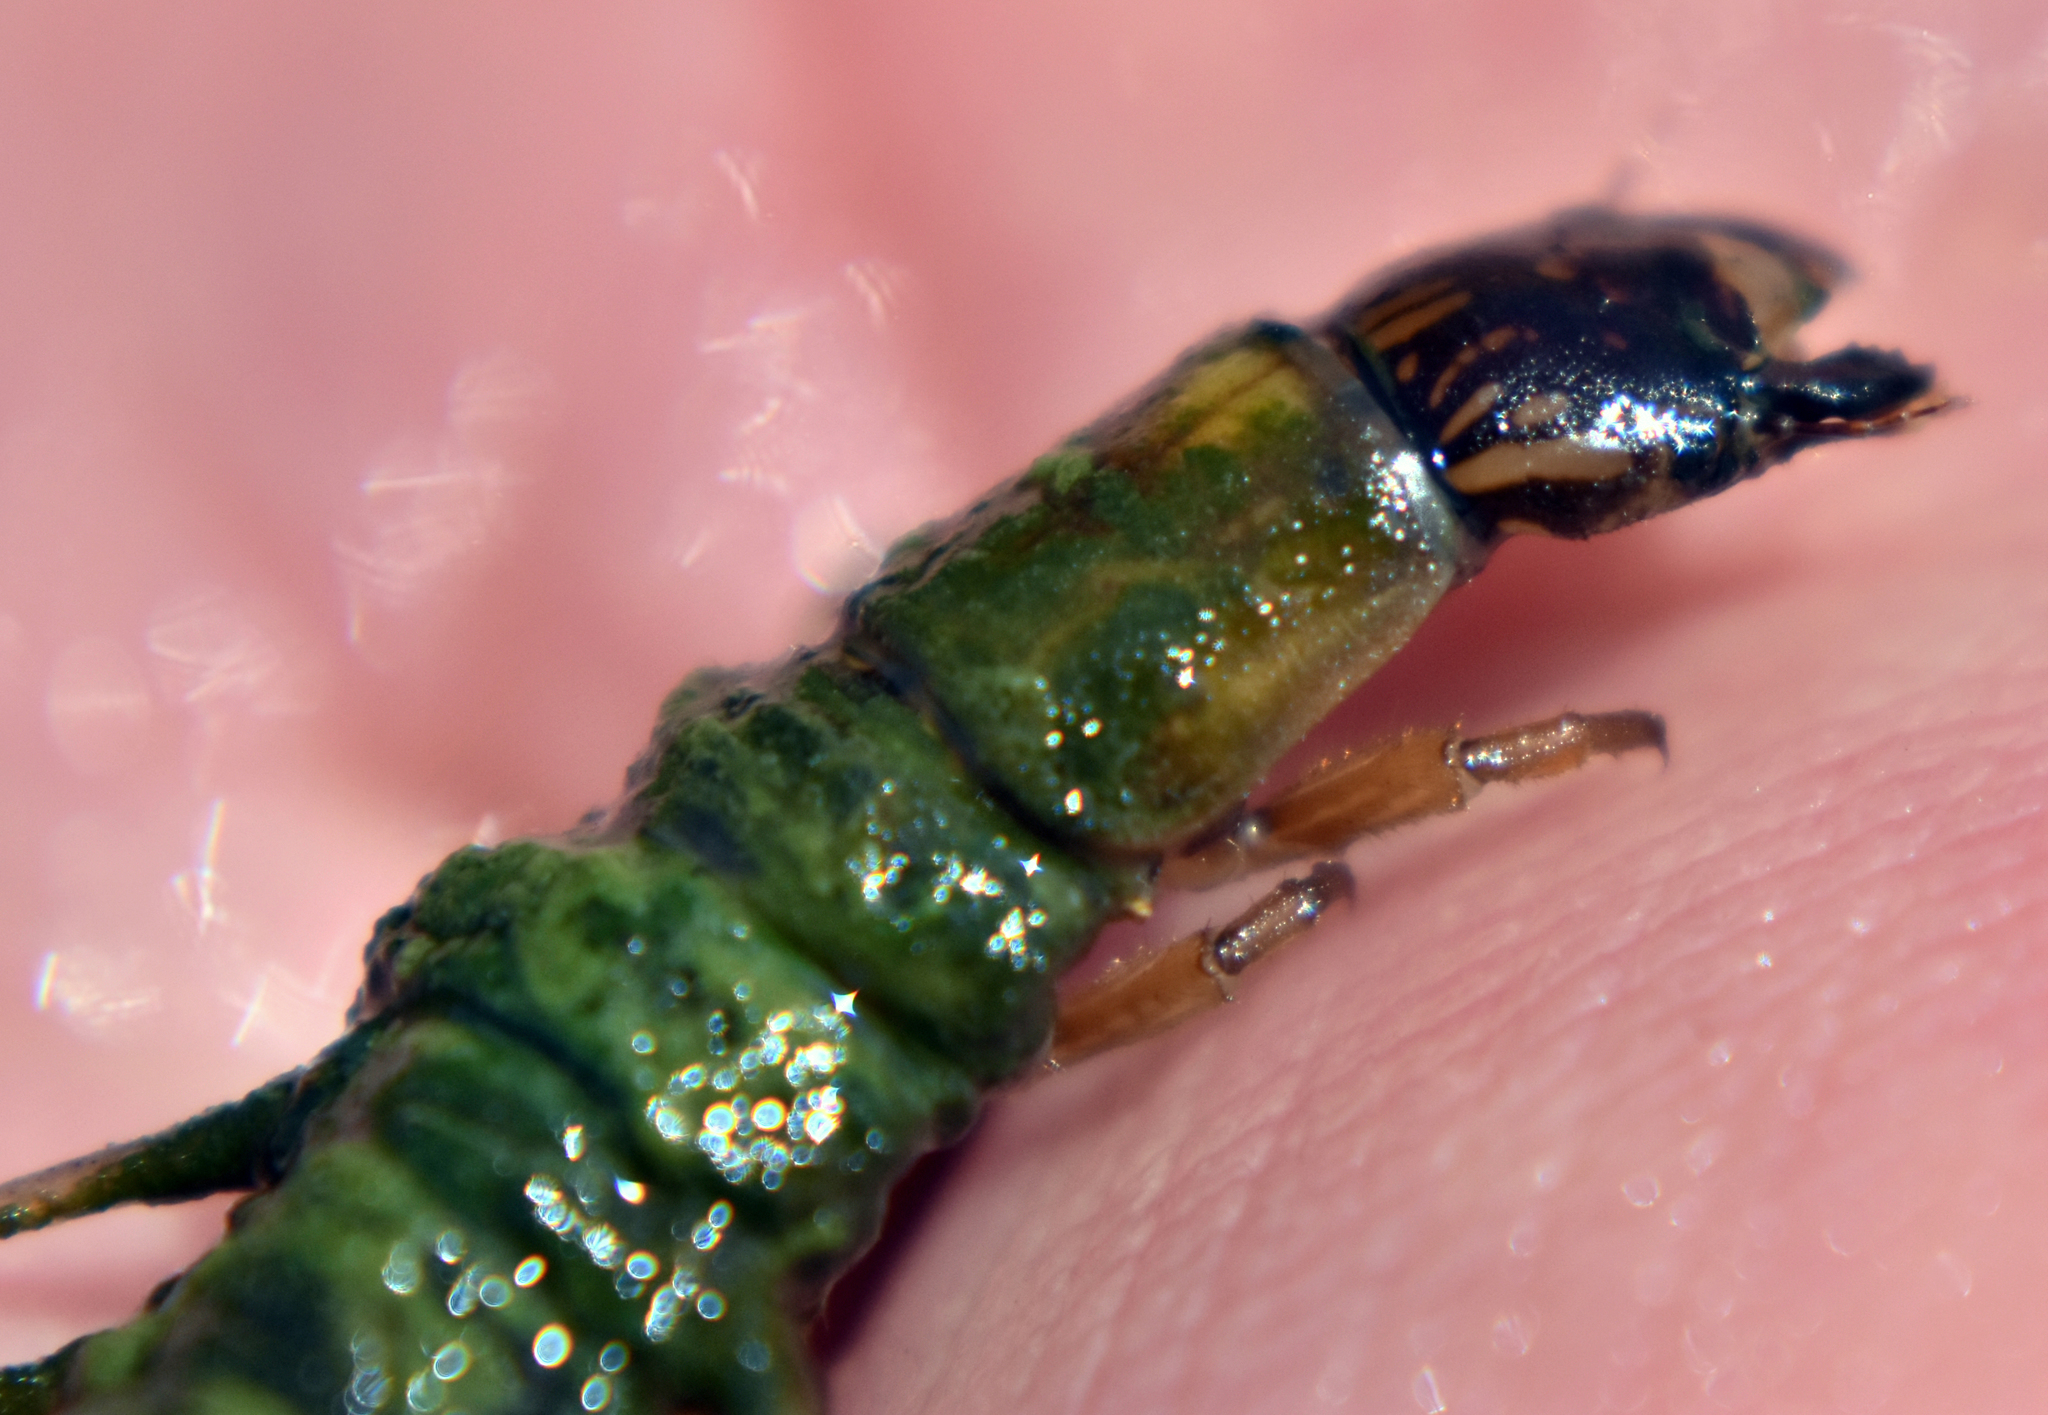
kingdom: Animalia
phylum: Arthropoda
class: Insecta
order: Megaloptera
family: Corydalidae
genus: Neohermes
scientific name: Neohermes filicornis
